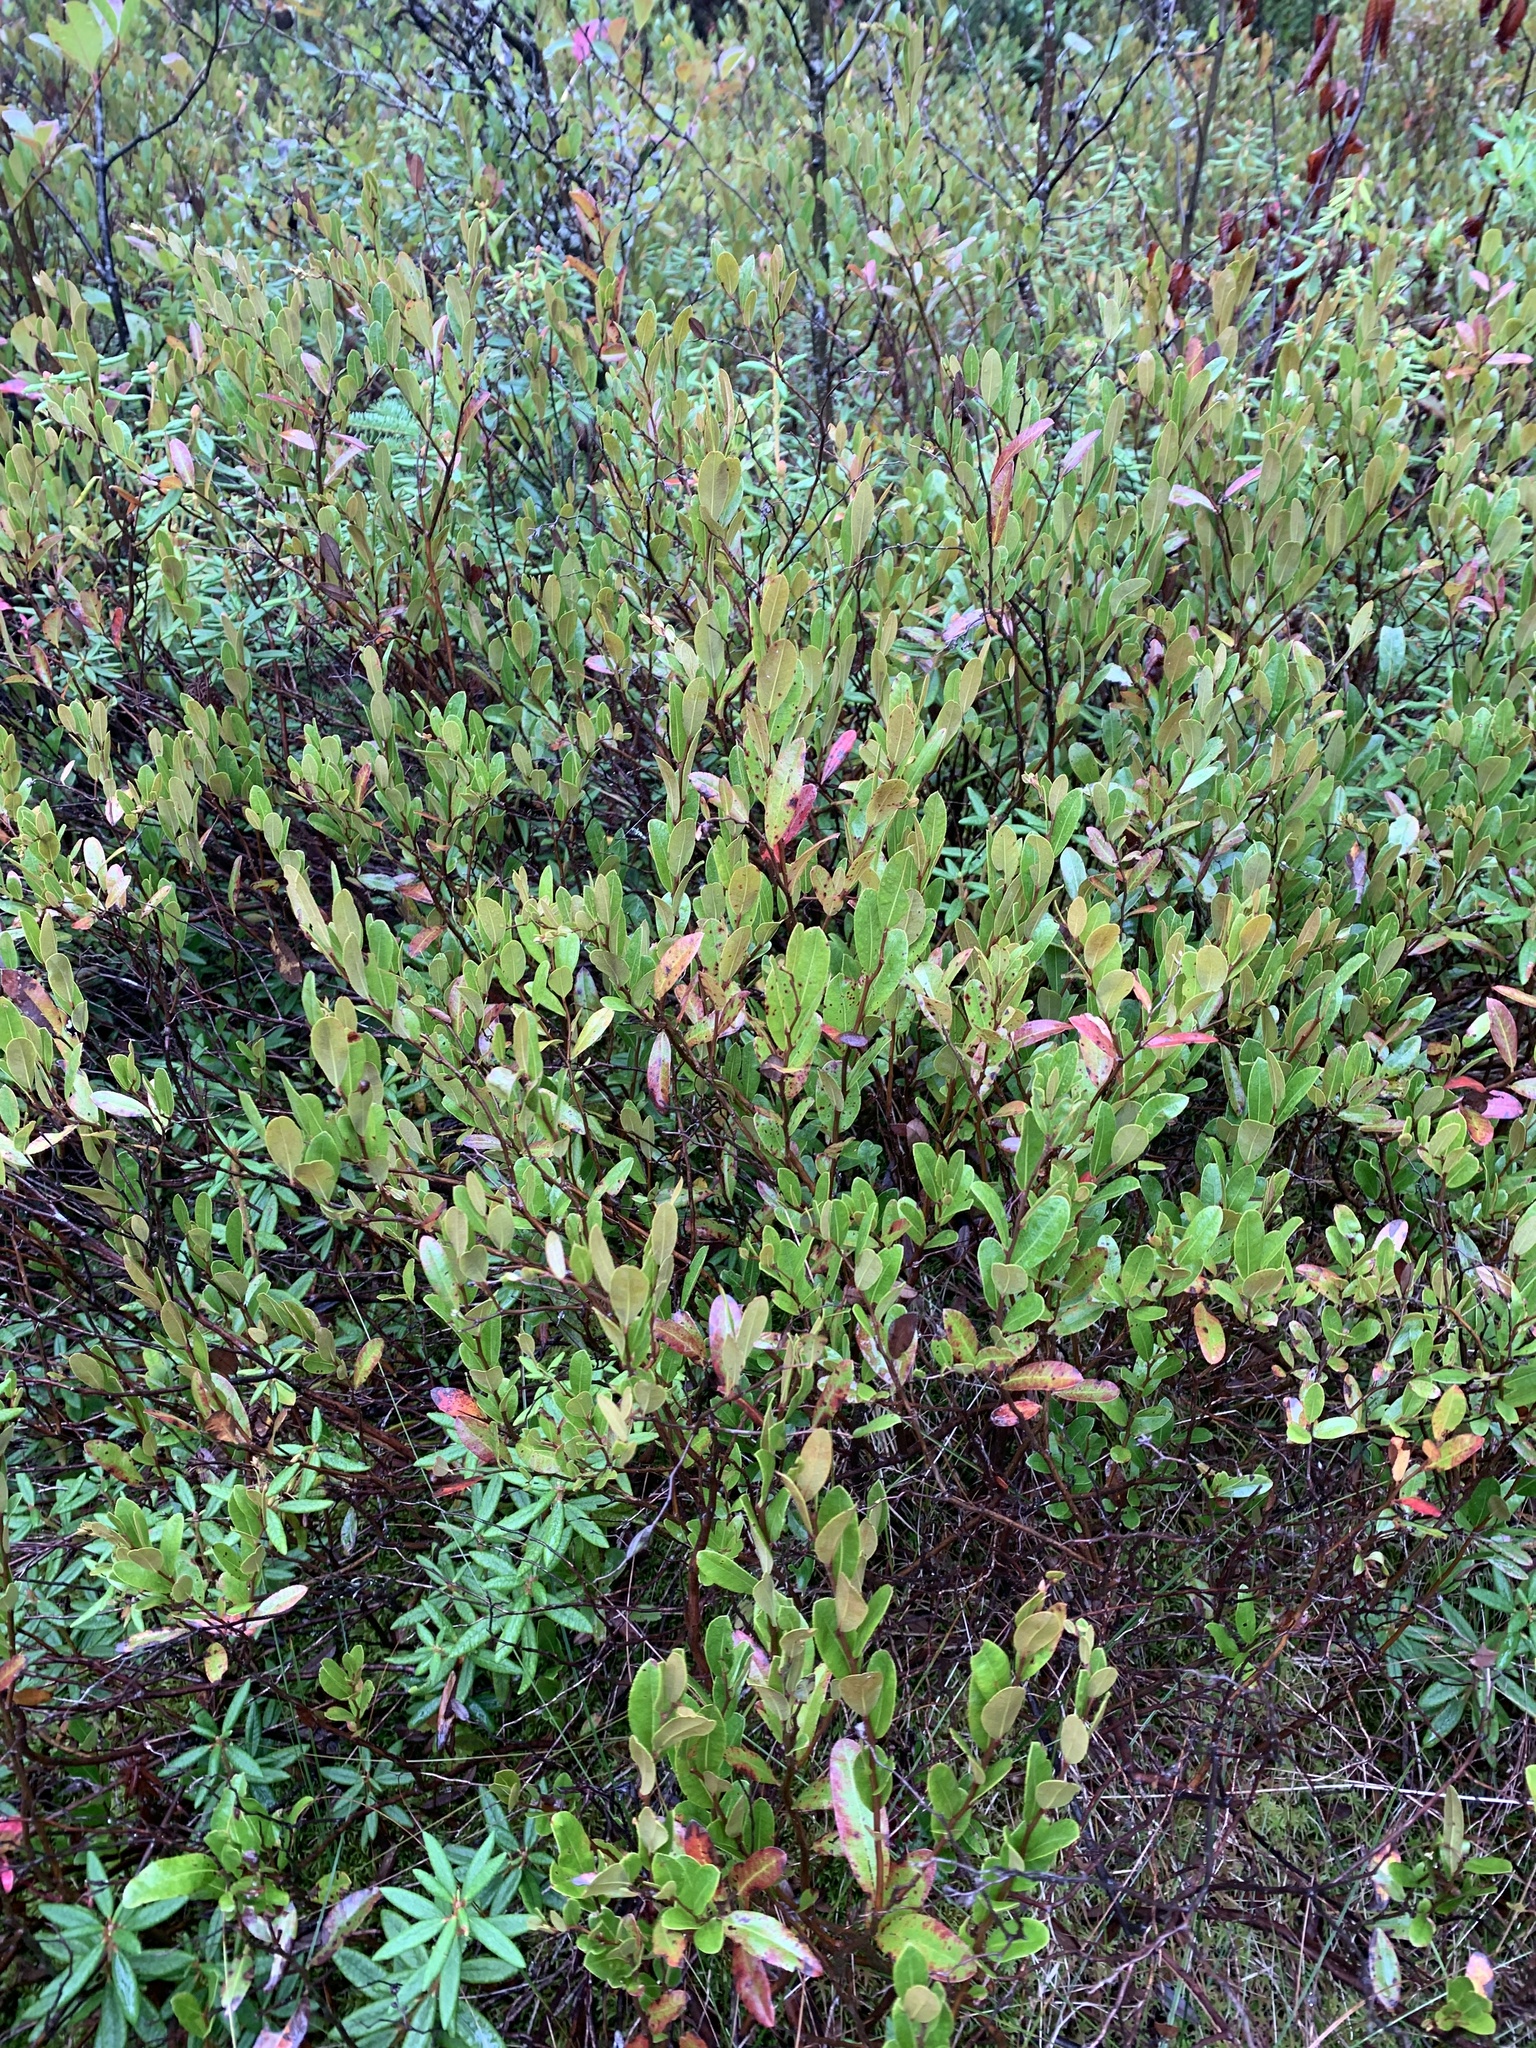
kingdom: Plantae
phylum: Tracheophyta
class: Magnoliopsida
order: Ericales
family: Ericaceae
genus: Chamaedaphne
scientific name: Chamaedaphne calyculata
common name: Leatherleaf
